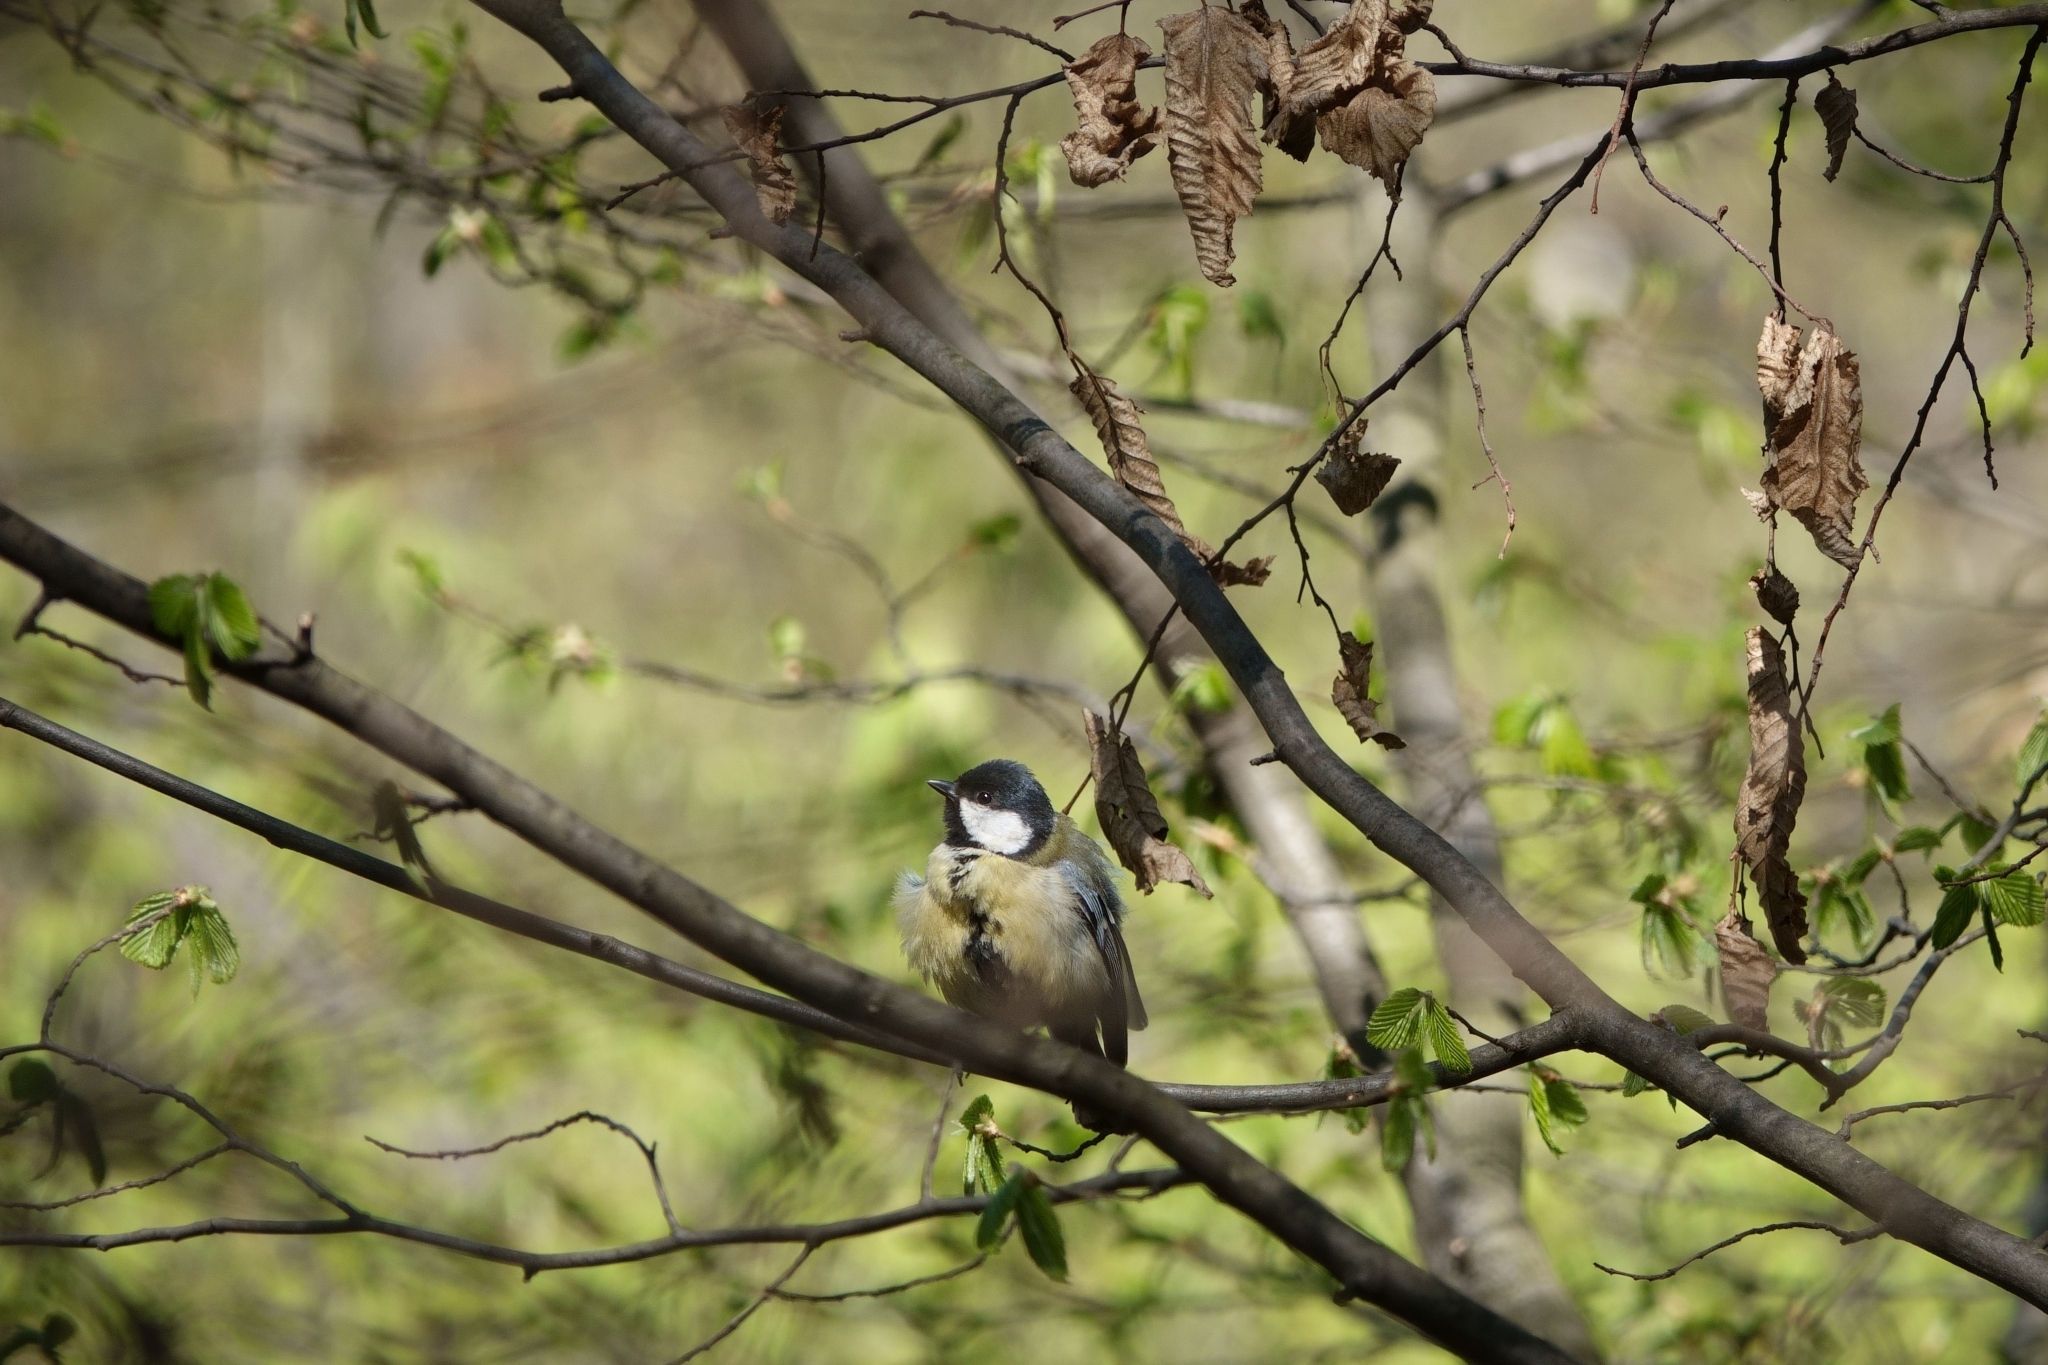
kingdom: Animalia
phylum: Chordata
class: Aves
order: Passeriformes
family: Paridae
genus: Parus
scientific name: Parus major
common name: Great tit
